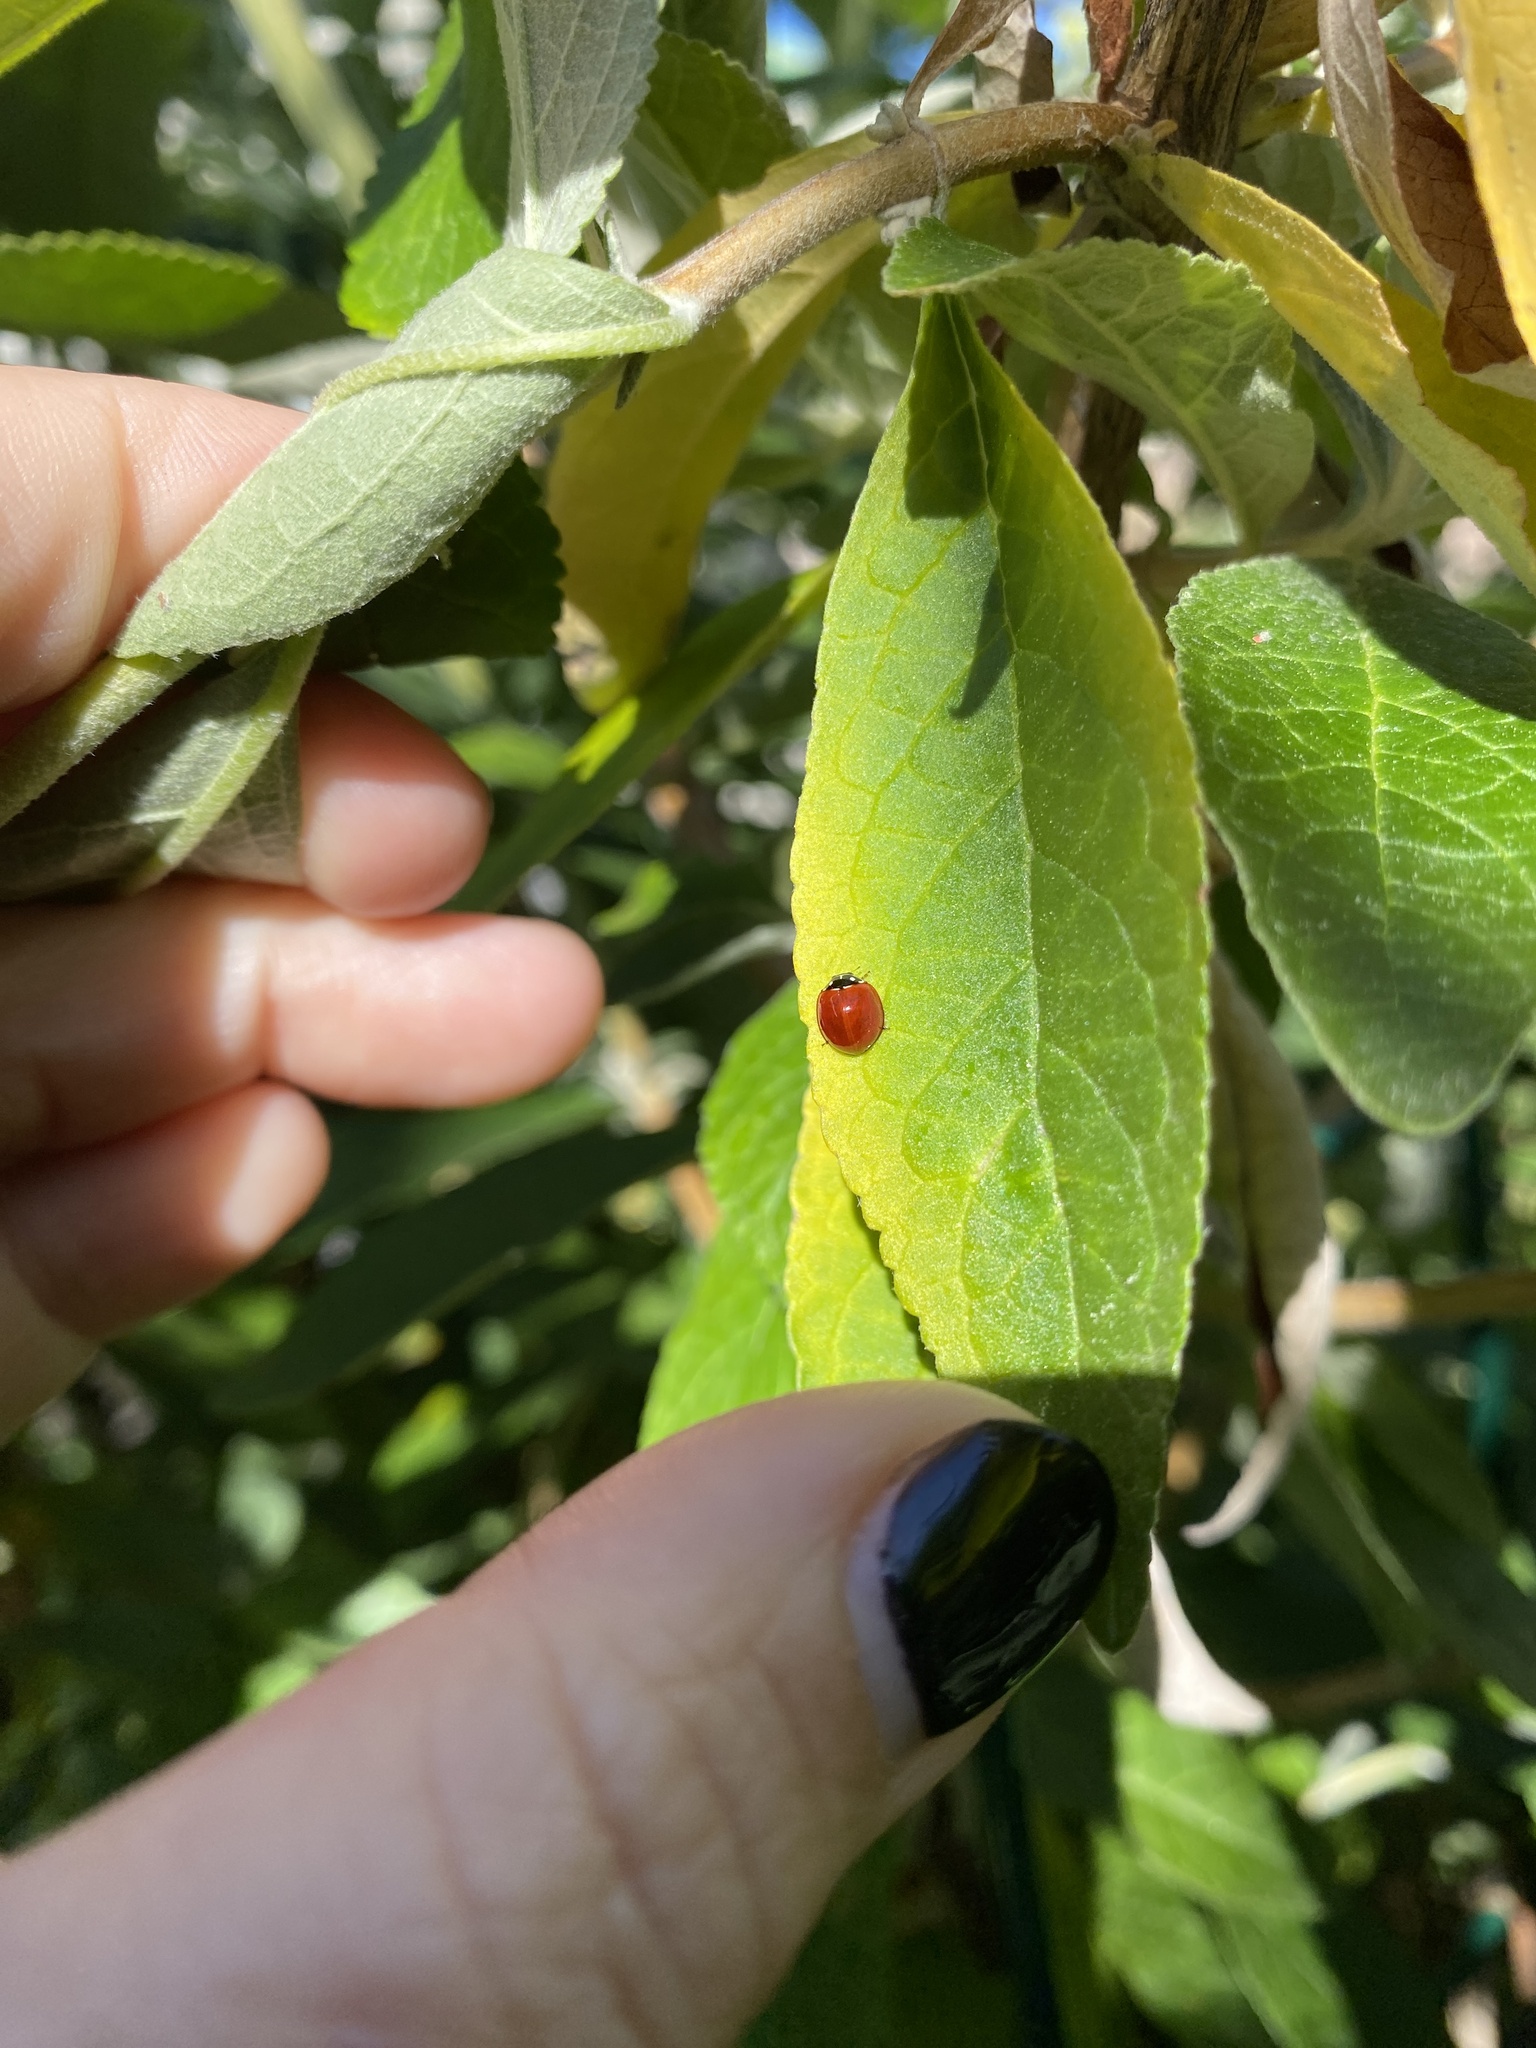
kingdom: Animalia
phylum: Arthropoda
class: Insecta
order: Coleoptera
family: Coccinellidae
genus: Cycloneda
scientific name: Cycloneda sanguinea
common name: Ladybird beetle
